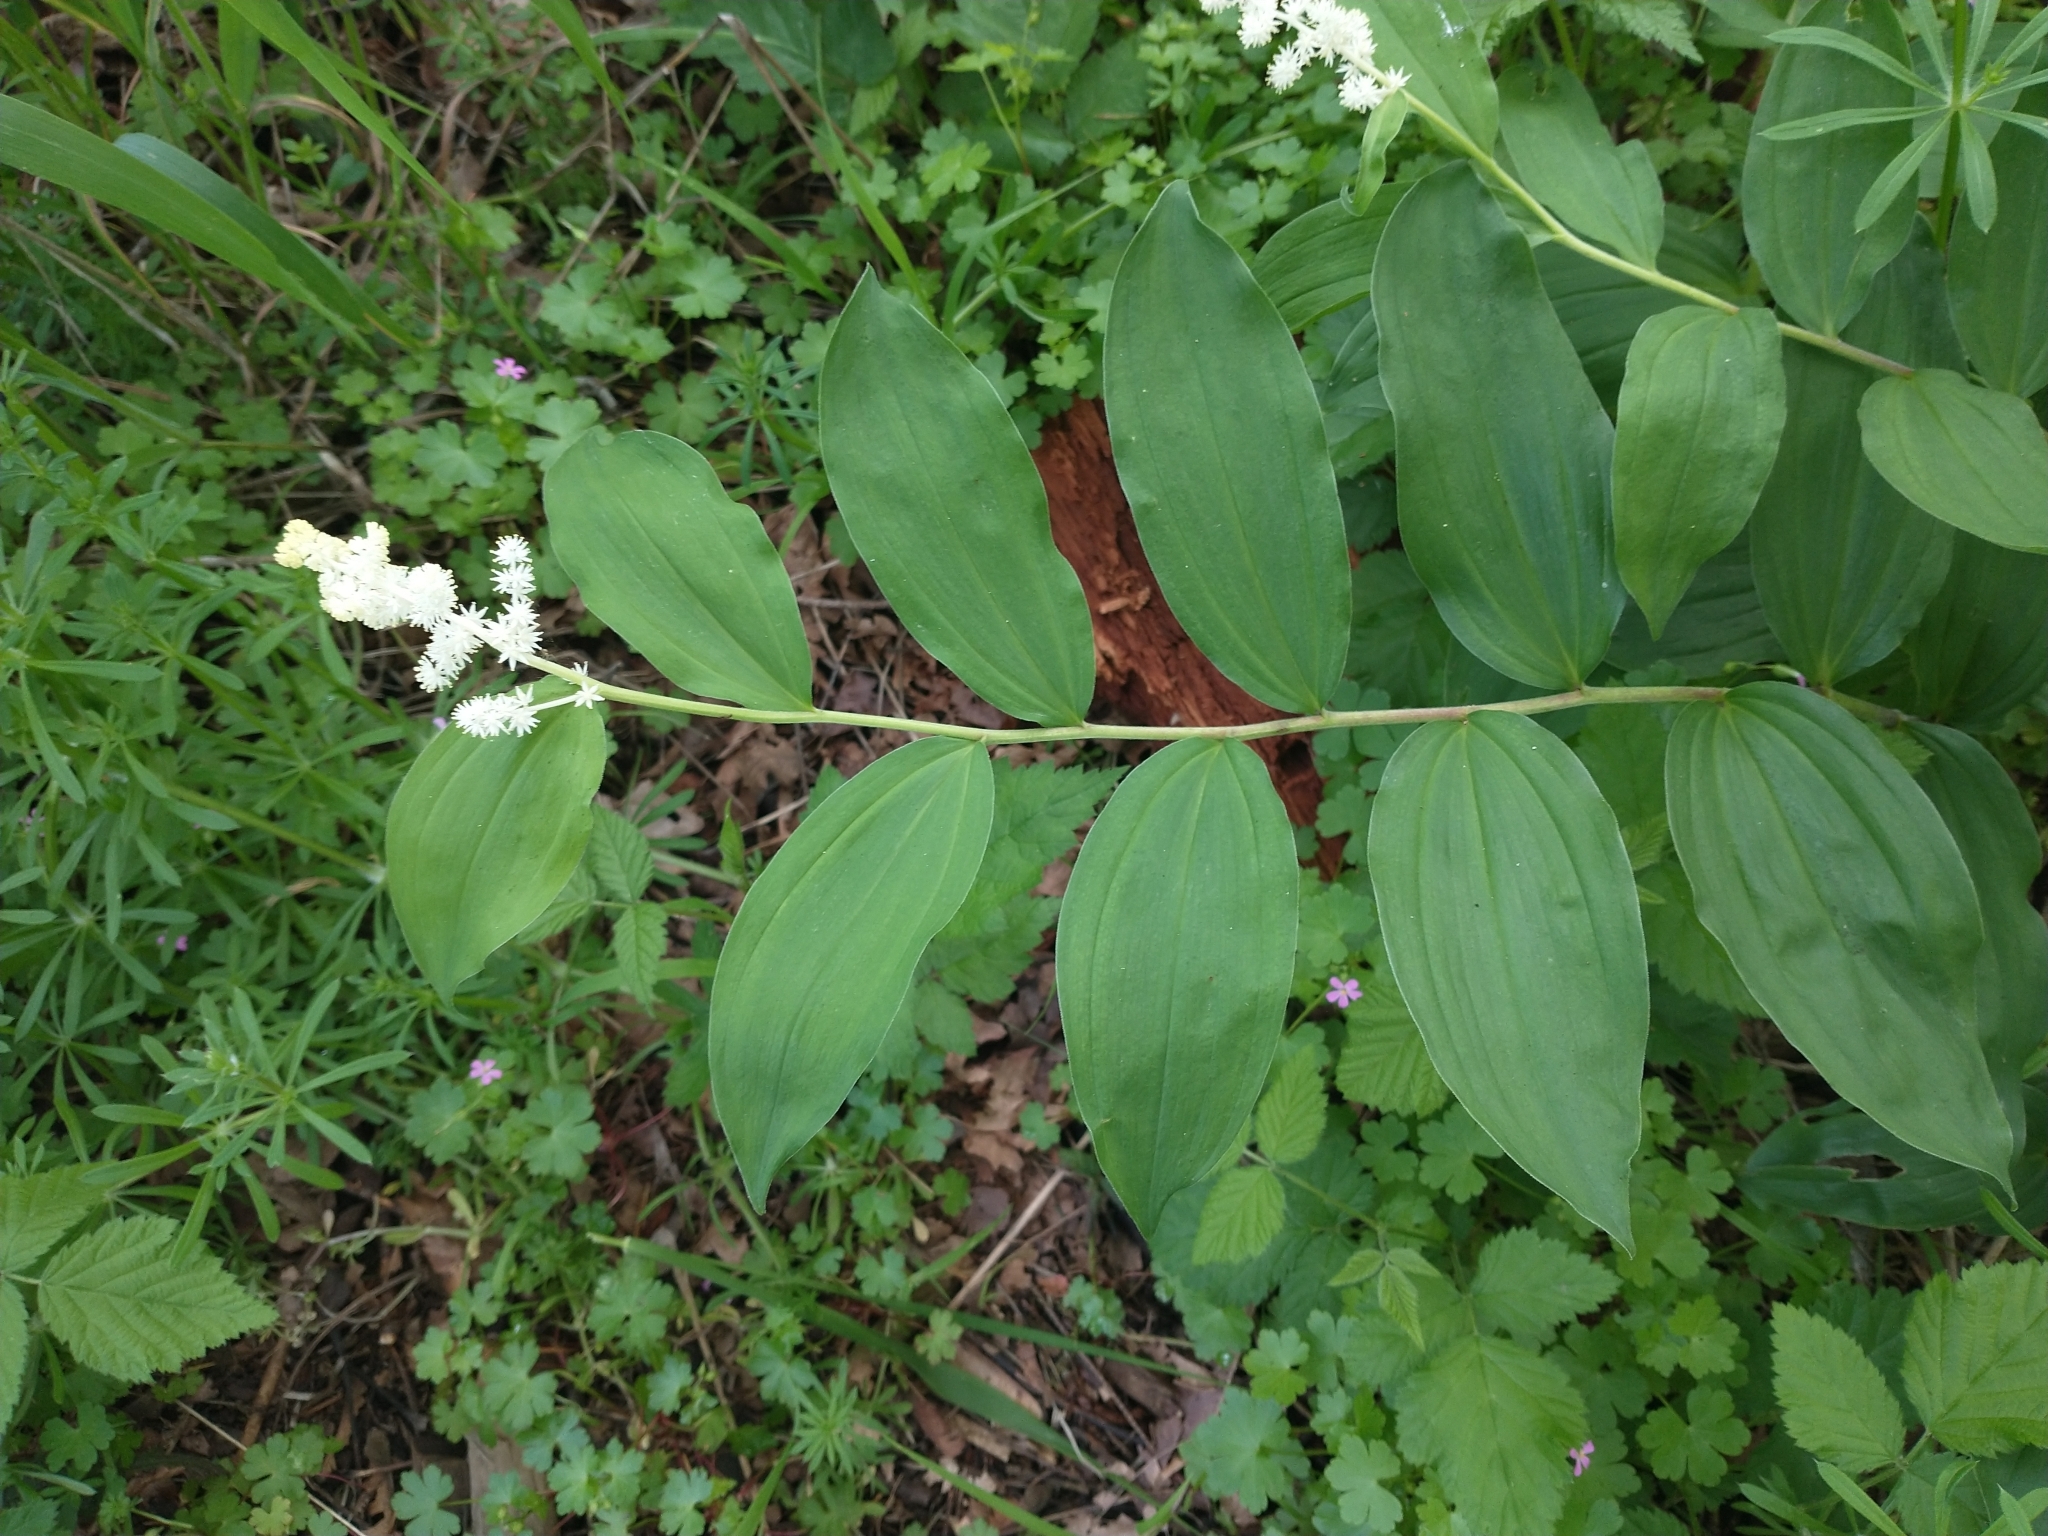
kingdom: Plantae
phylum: Tracheophyta
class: Liliopsida
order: Asparagales
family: Asparagaceae
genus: Maianthemum
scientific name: Maianthemum racemosum
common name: False spikenard
